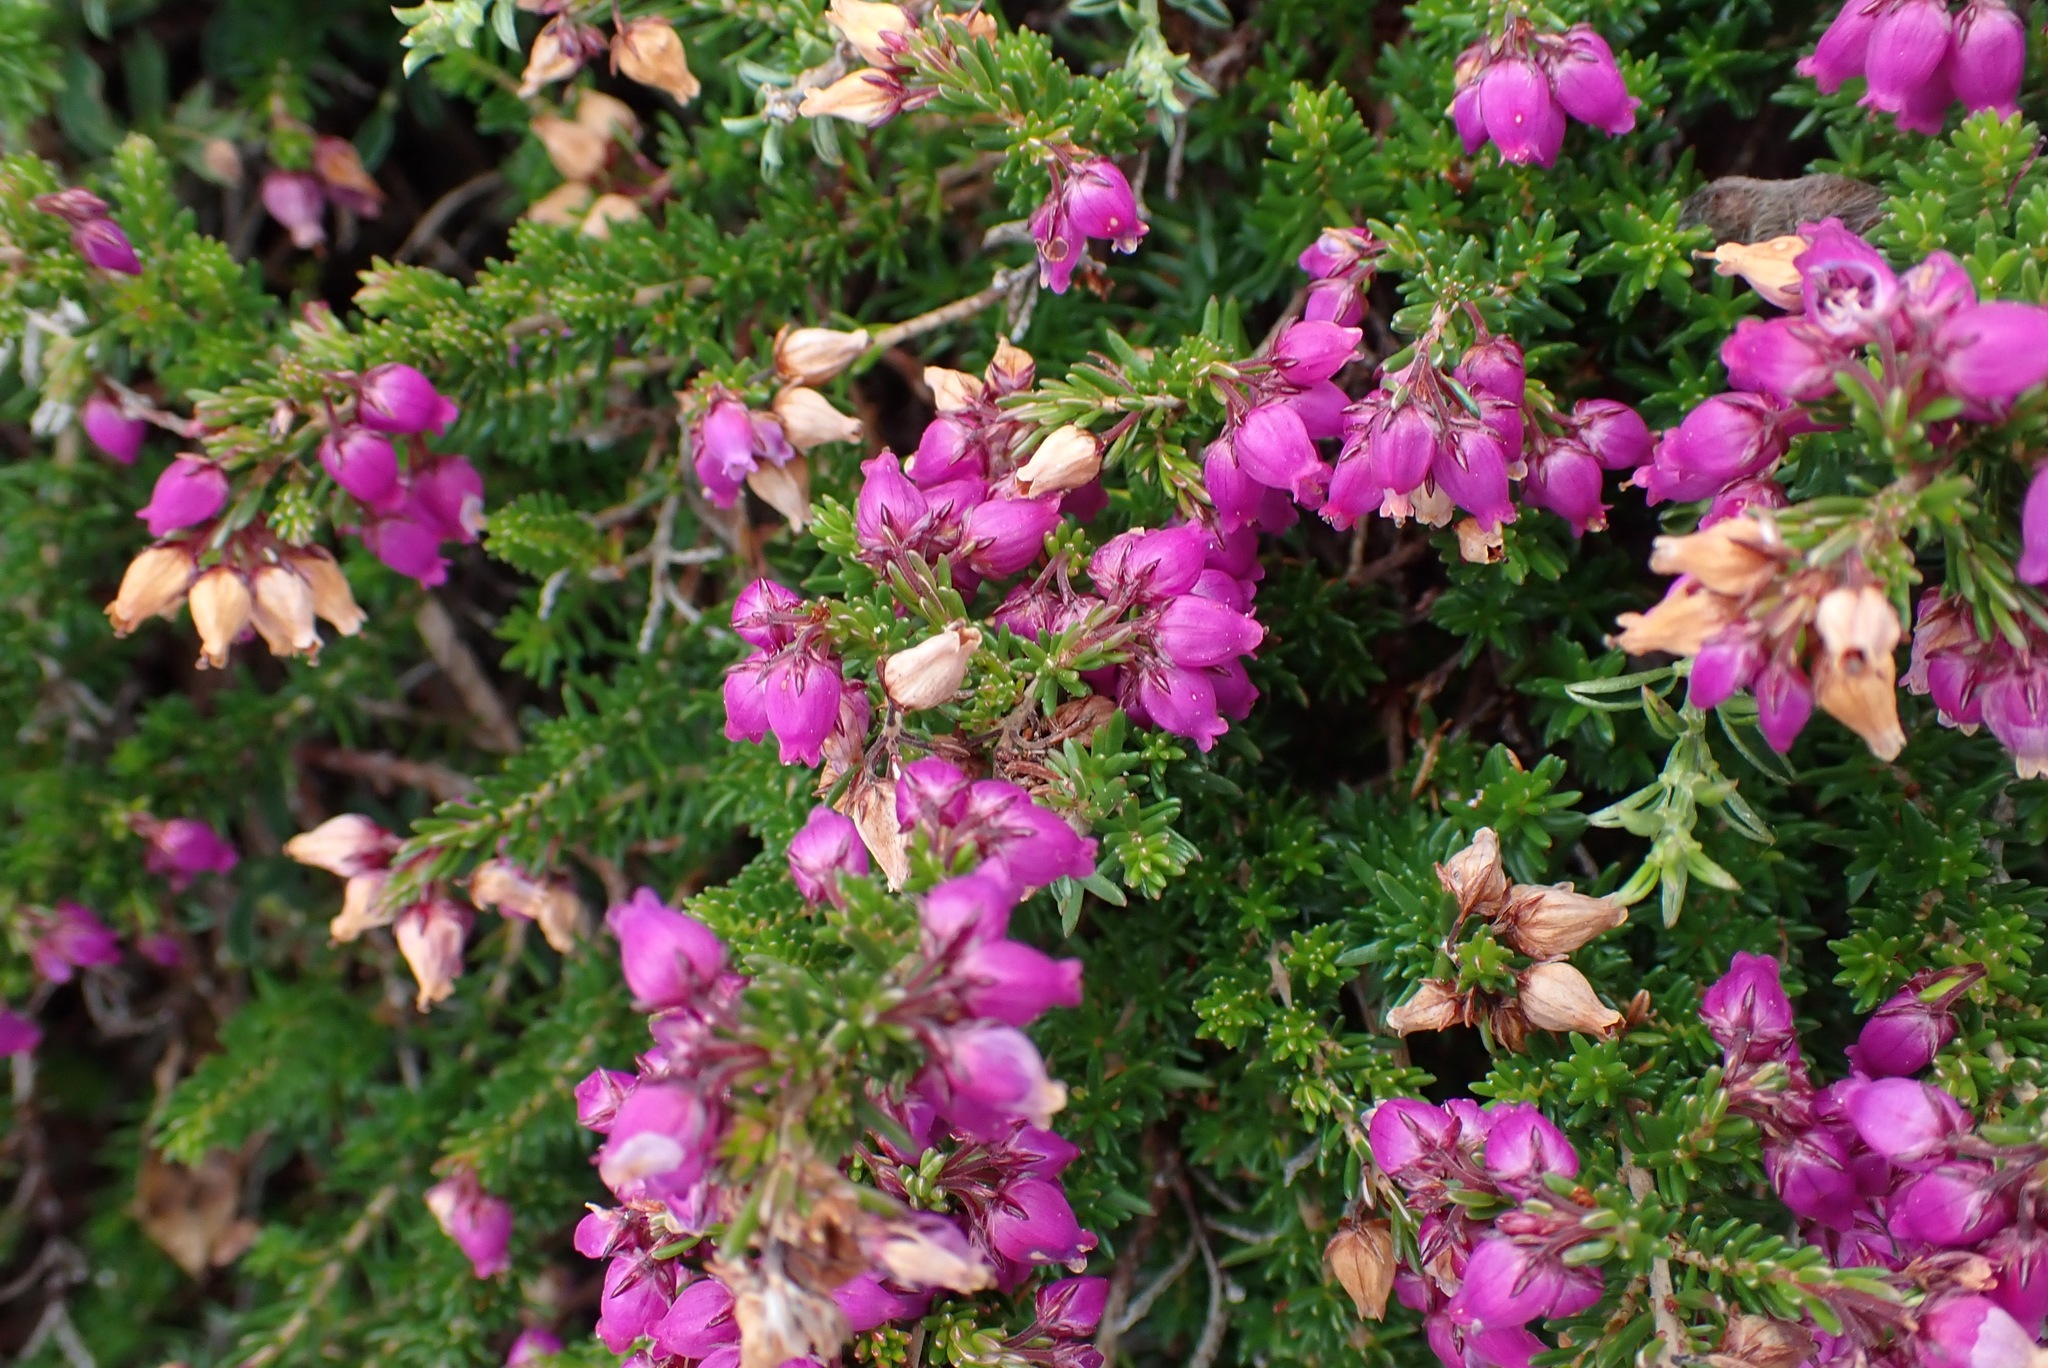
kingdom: Plantae
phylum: Tracheophyta
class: Magnoliopsida
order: Ericales
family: Ericaceae
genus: Erica
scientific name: Erica cinerea
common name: Bell heather
